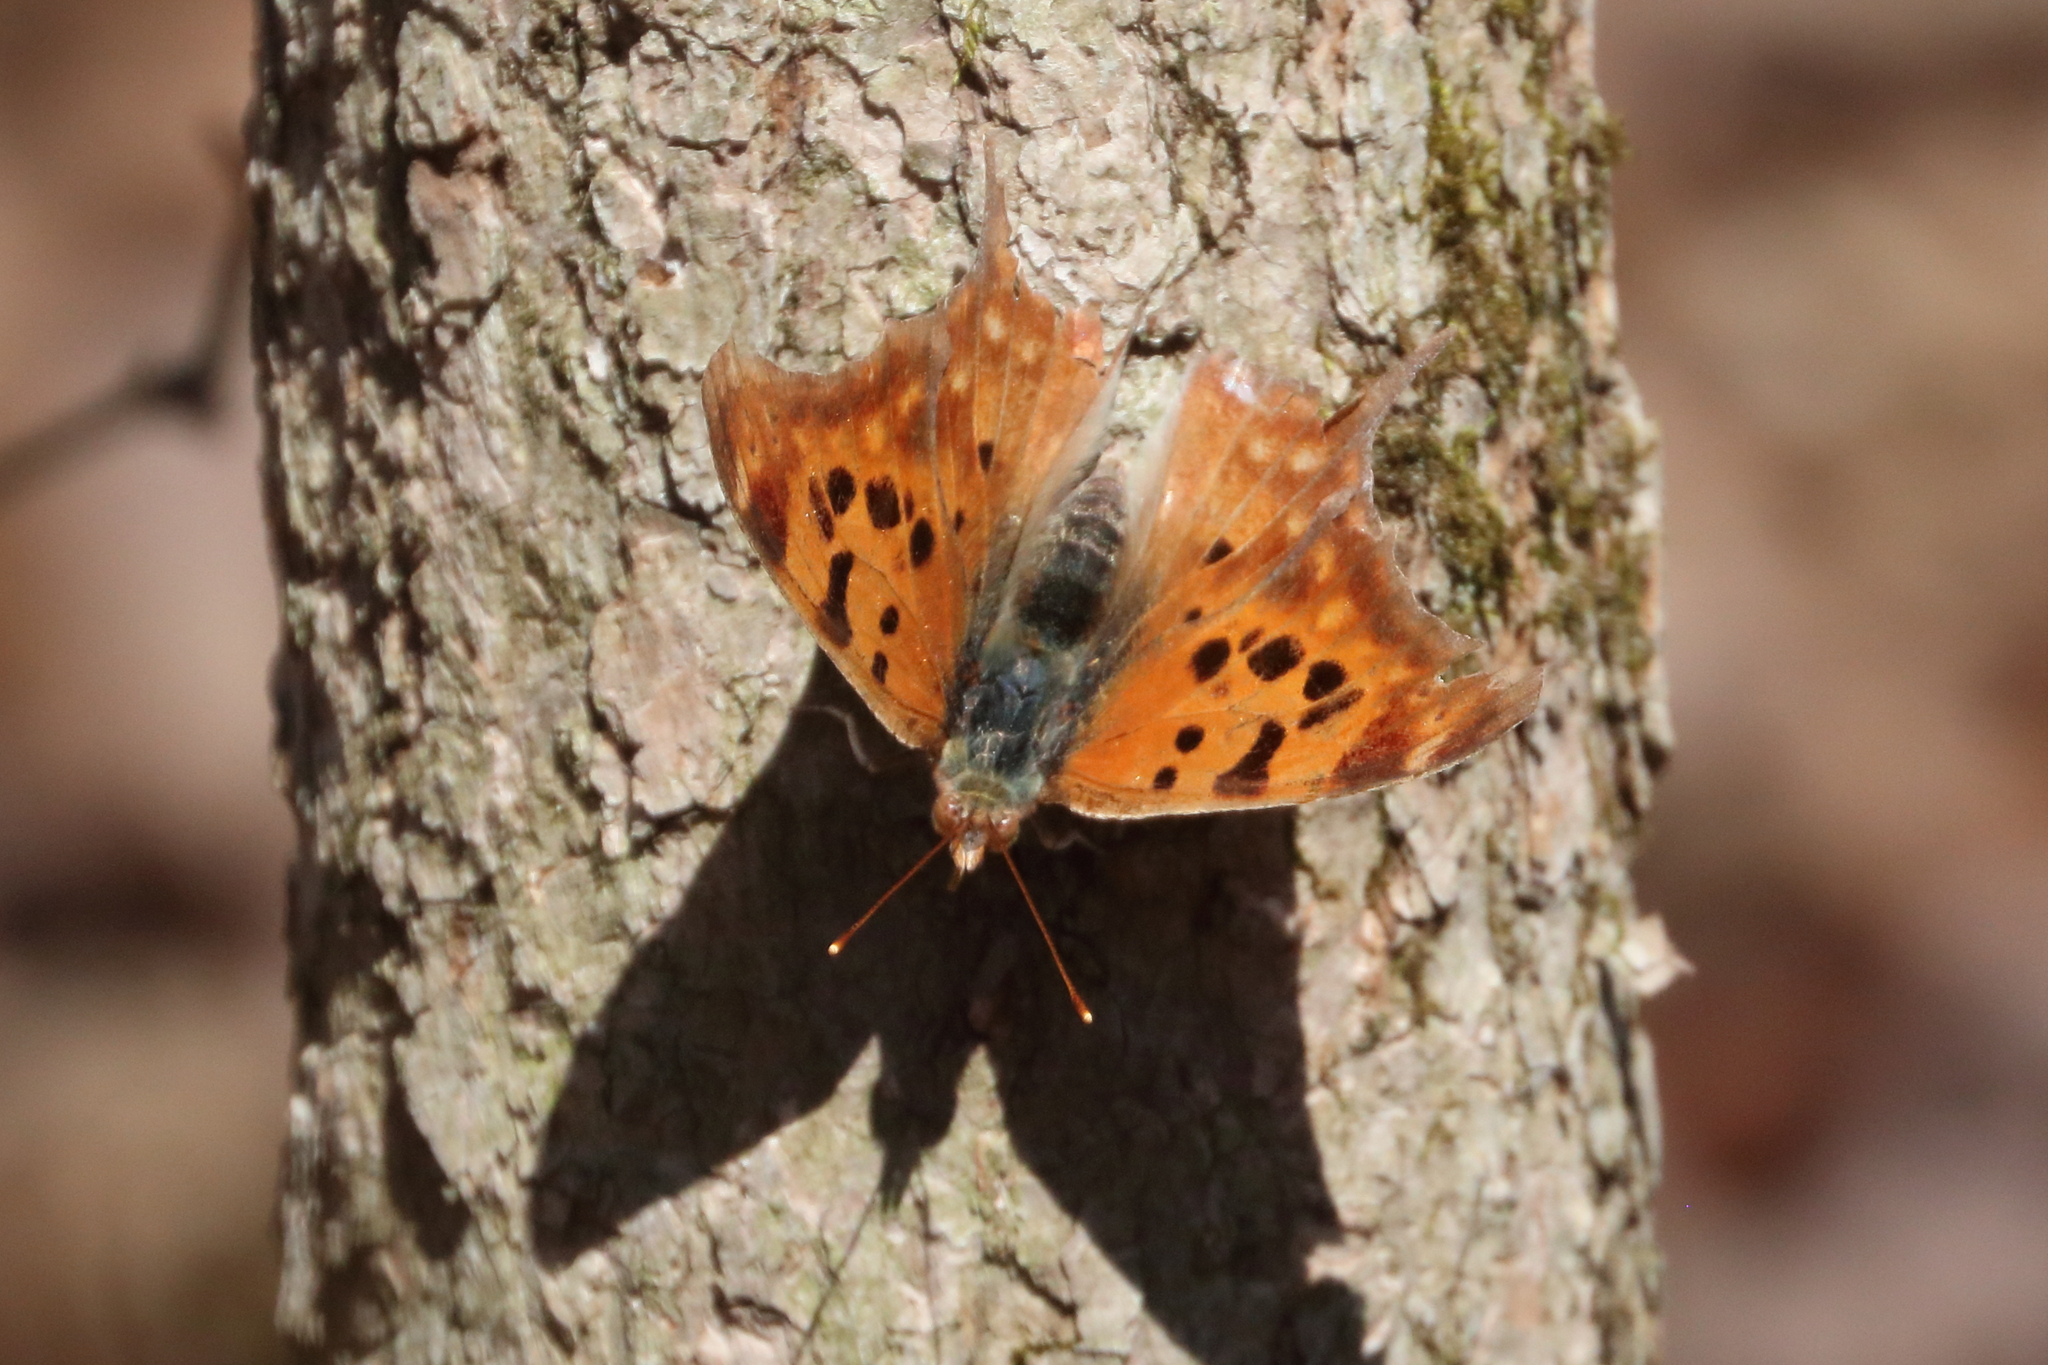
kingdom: Animalia
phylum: Arthropoda
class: Insecta
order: Lepidoptera
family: Nymphalidae
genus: Polygonia
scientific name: Polygonia interrogationis
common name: Question mark
